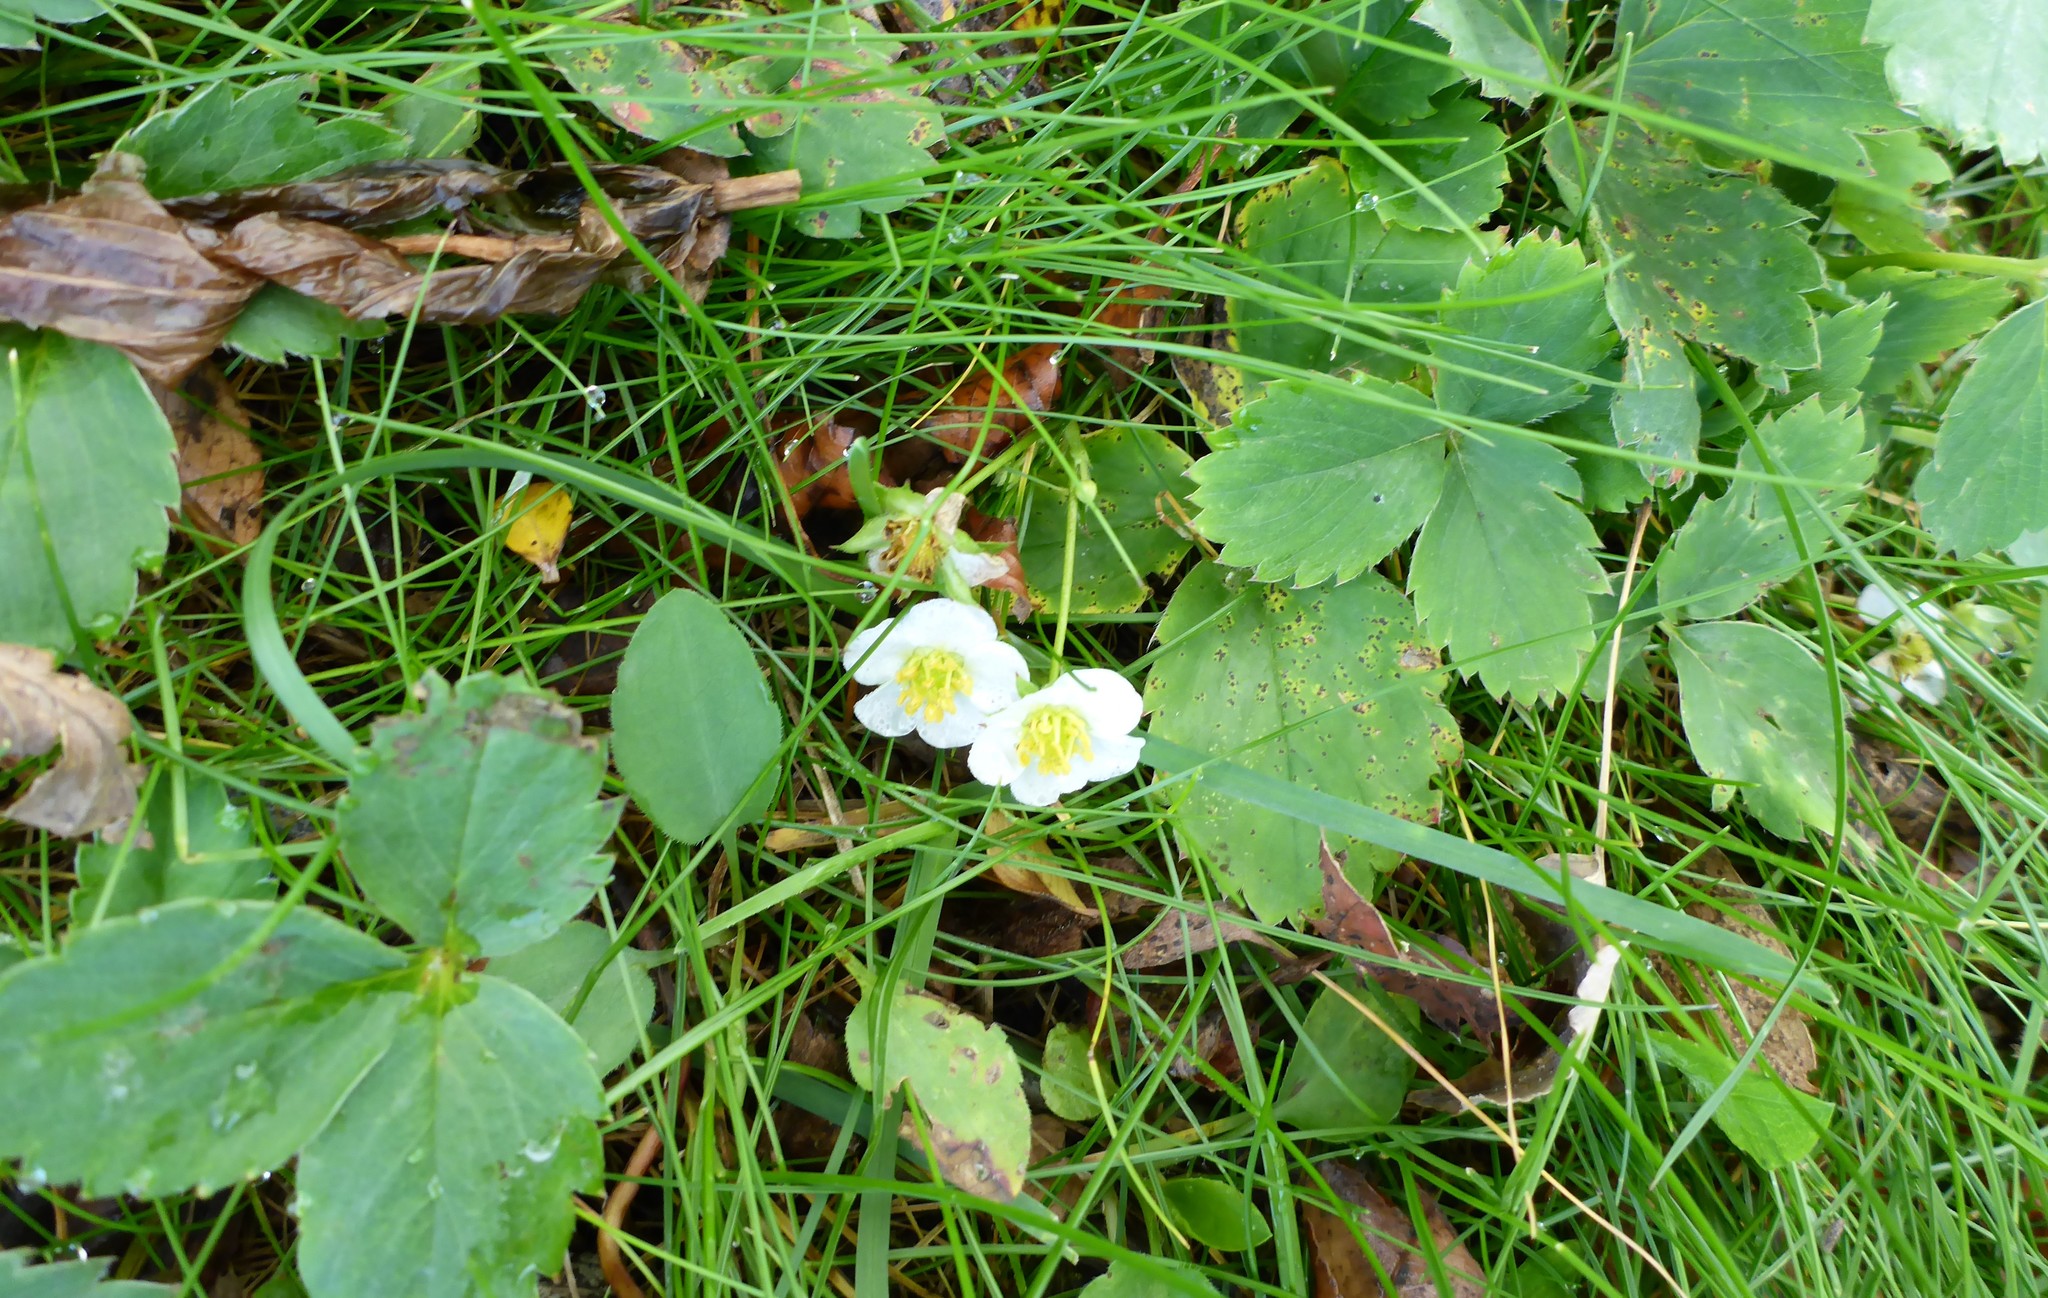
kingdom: Plantae
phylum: Tracheophyta
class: Magnoliopsida
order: Rosales
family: Rosaceae
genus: Fragaria
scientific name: Fragaria virginiana
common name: Thickleaved wild strawberry
